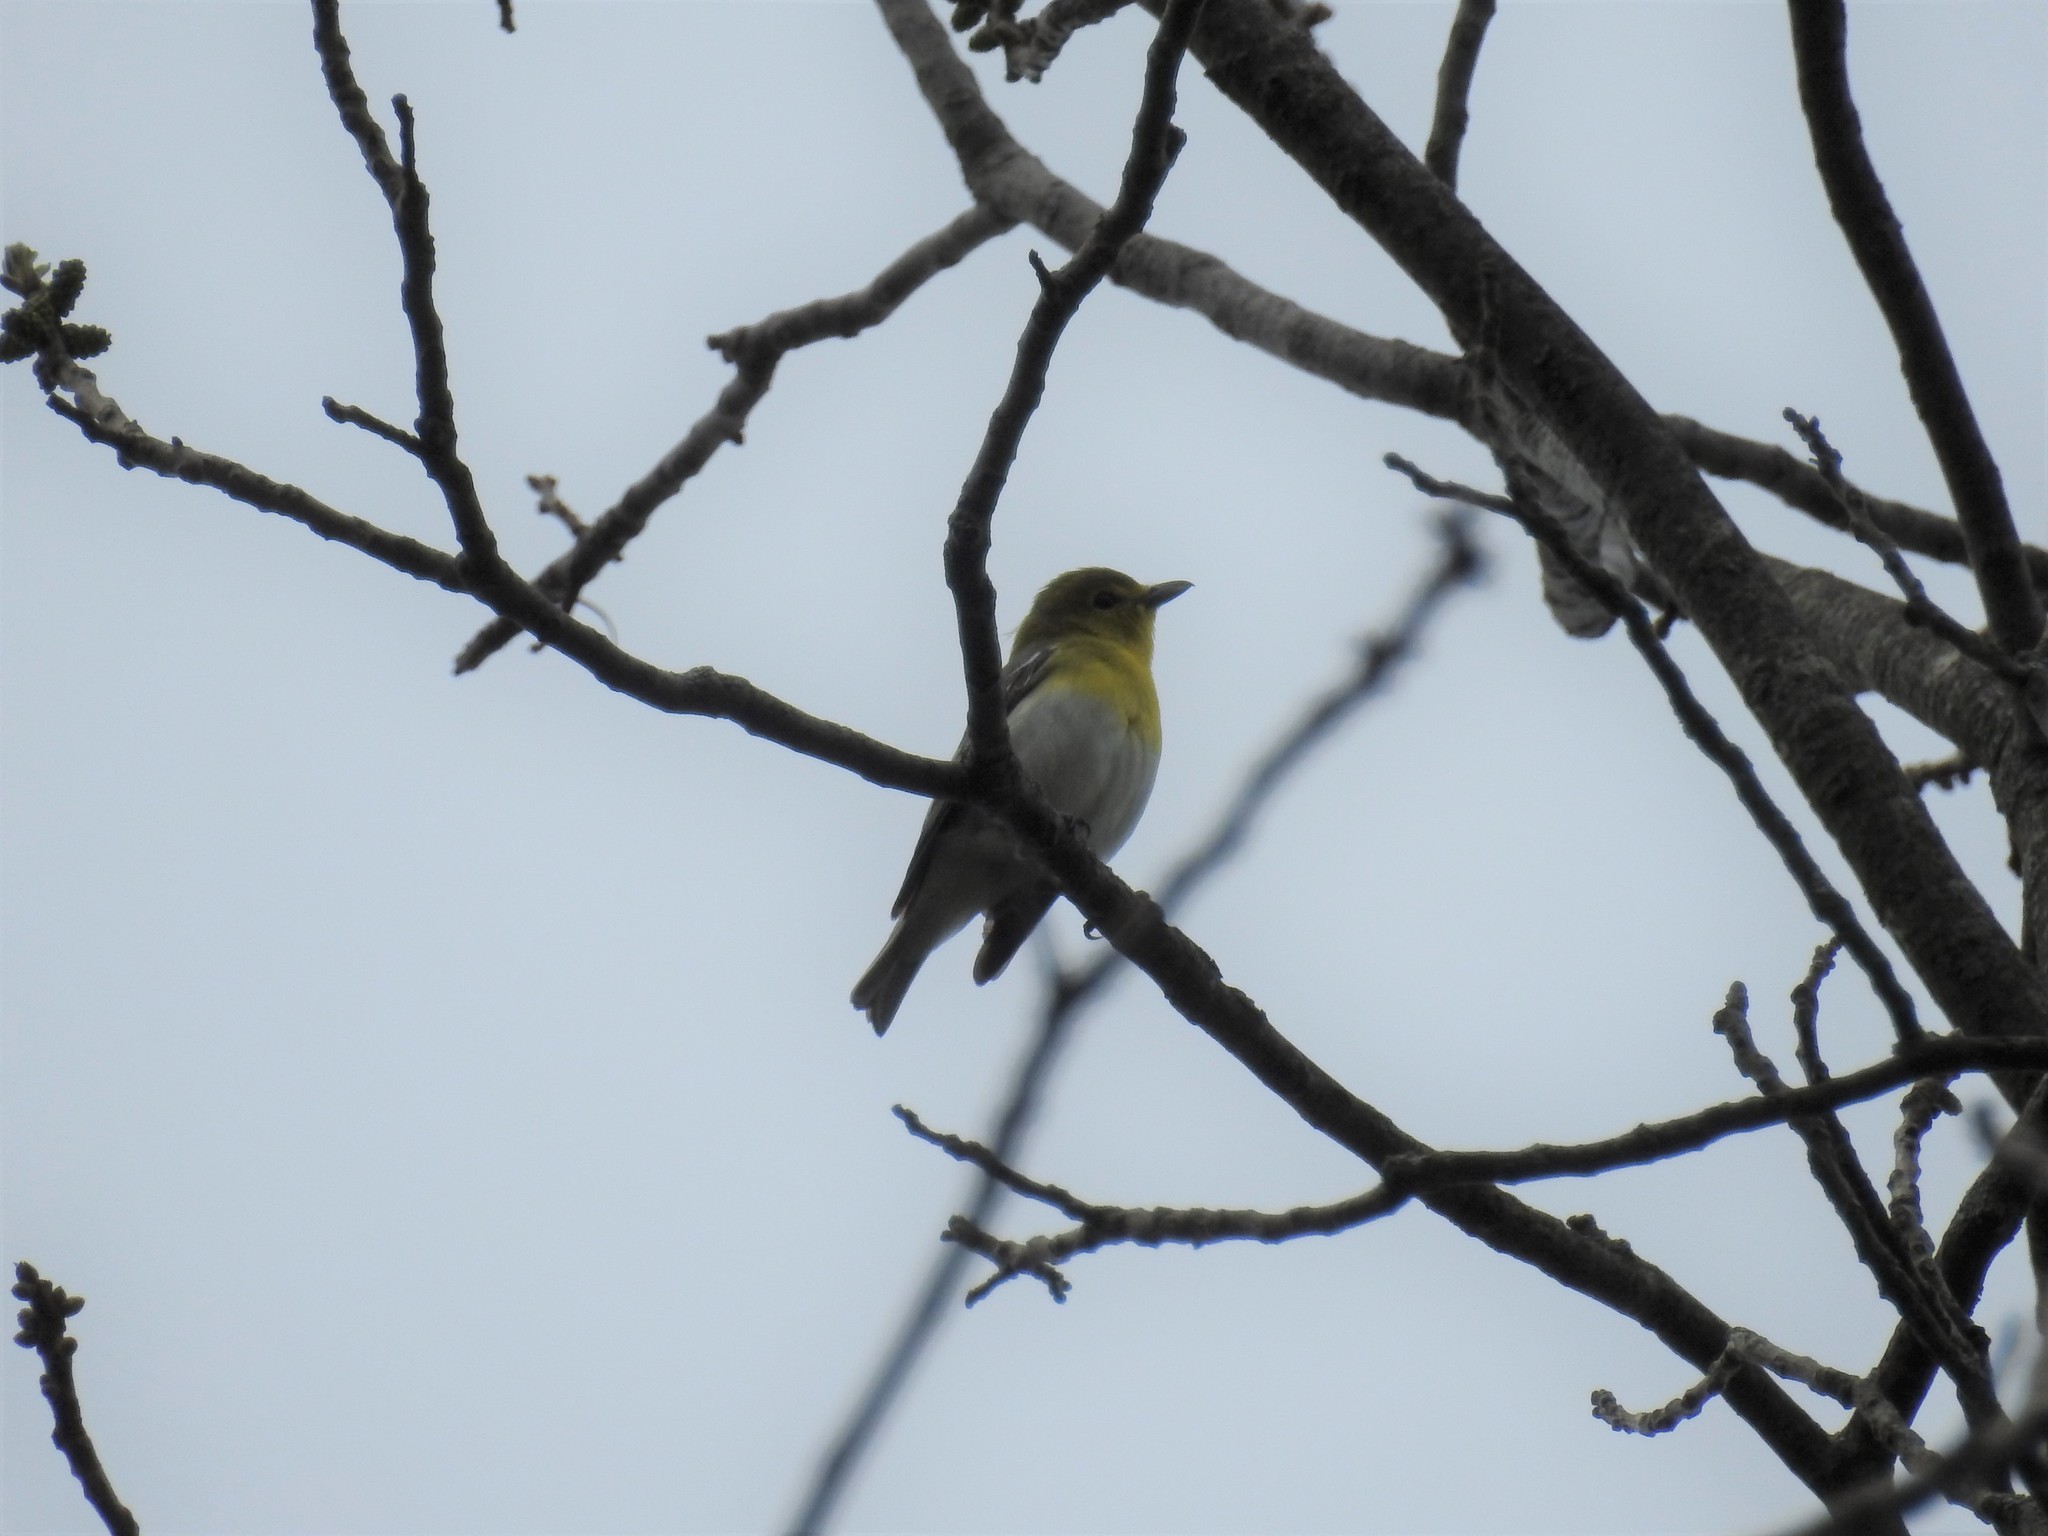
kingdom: Animalia
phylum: Chordata
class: Aves
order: Passeriformes
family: Vireonidae
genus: Vireo
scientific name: Vireo flavifrons
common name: Yellow-throated vireo
